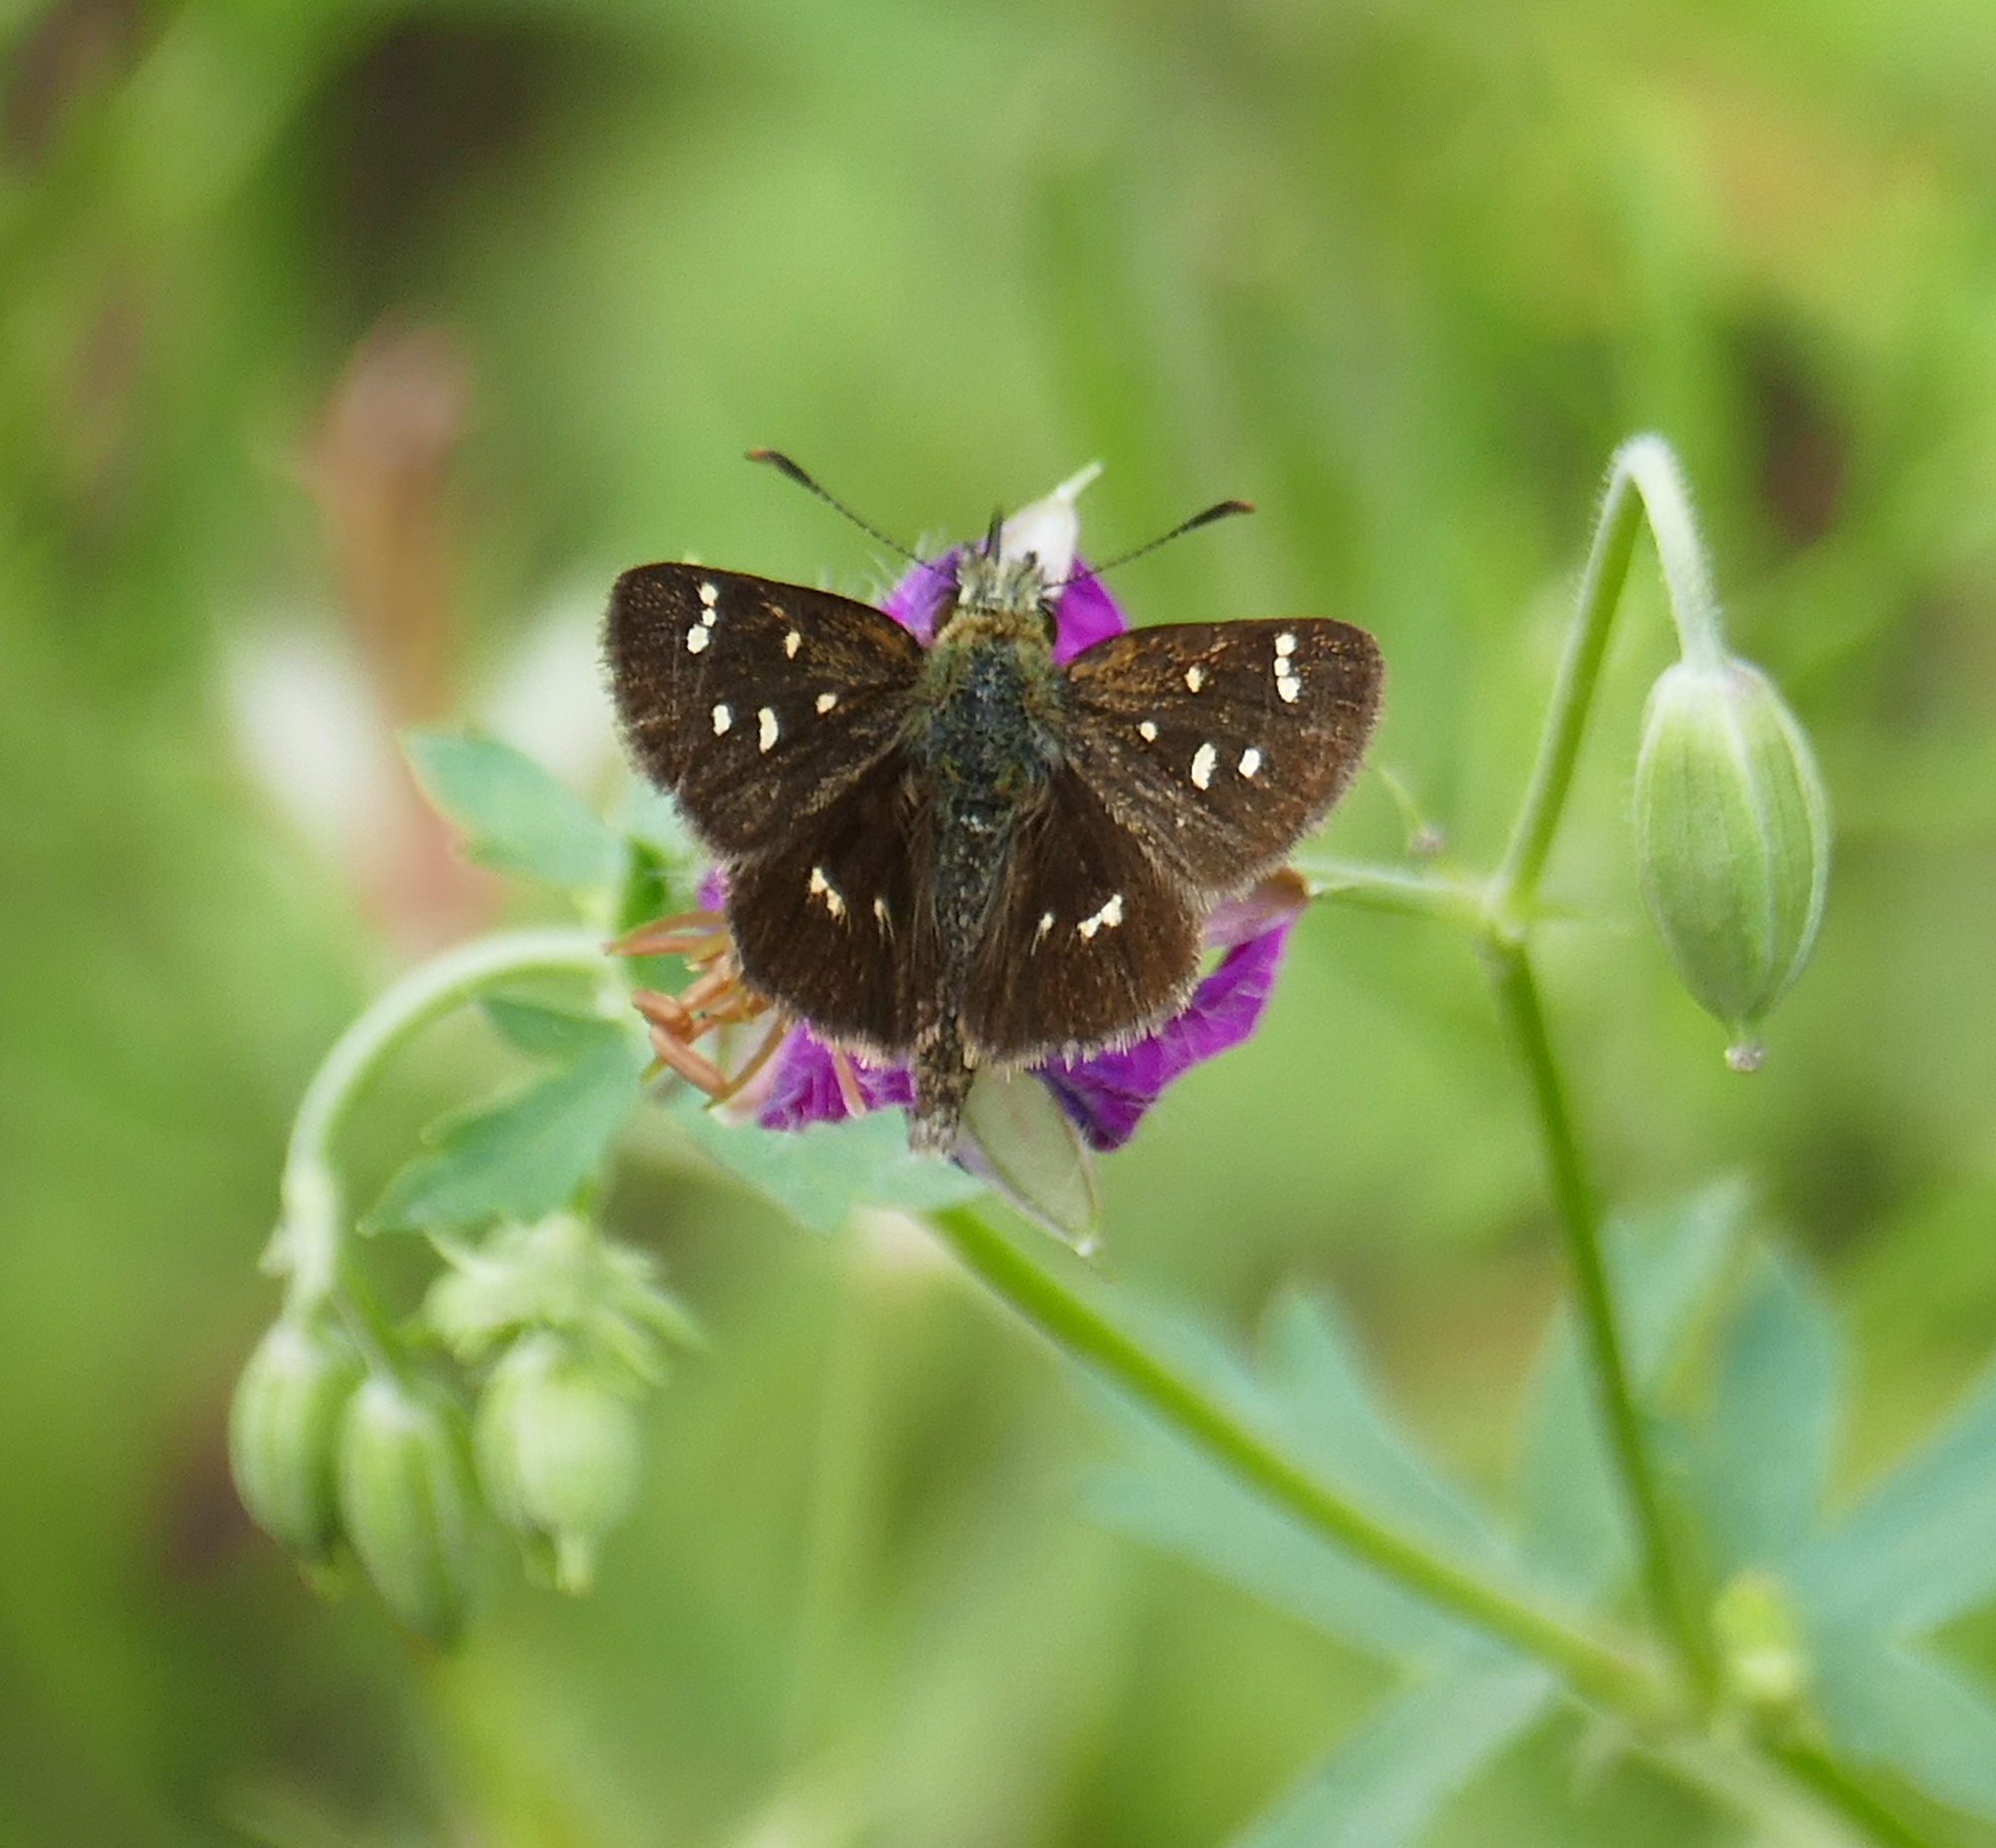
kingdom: Animalia
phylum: Arthropoda
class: Insecta
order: Lepidoptera
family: Hesperiidae
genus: Piruna
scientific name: Piruna polingii
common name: Four-spotted skipperling
